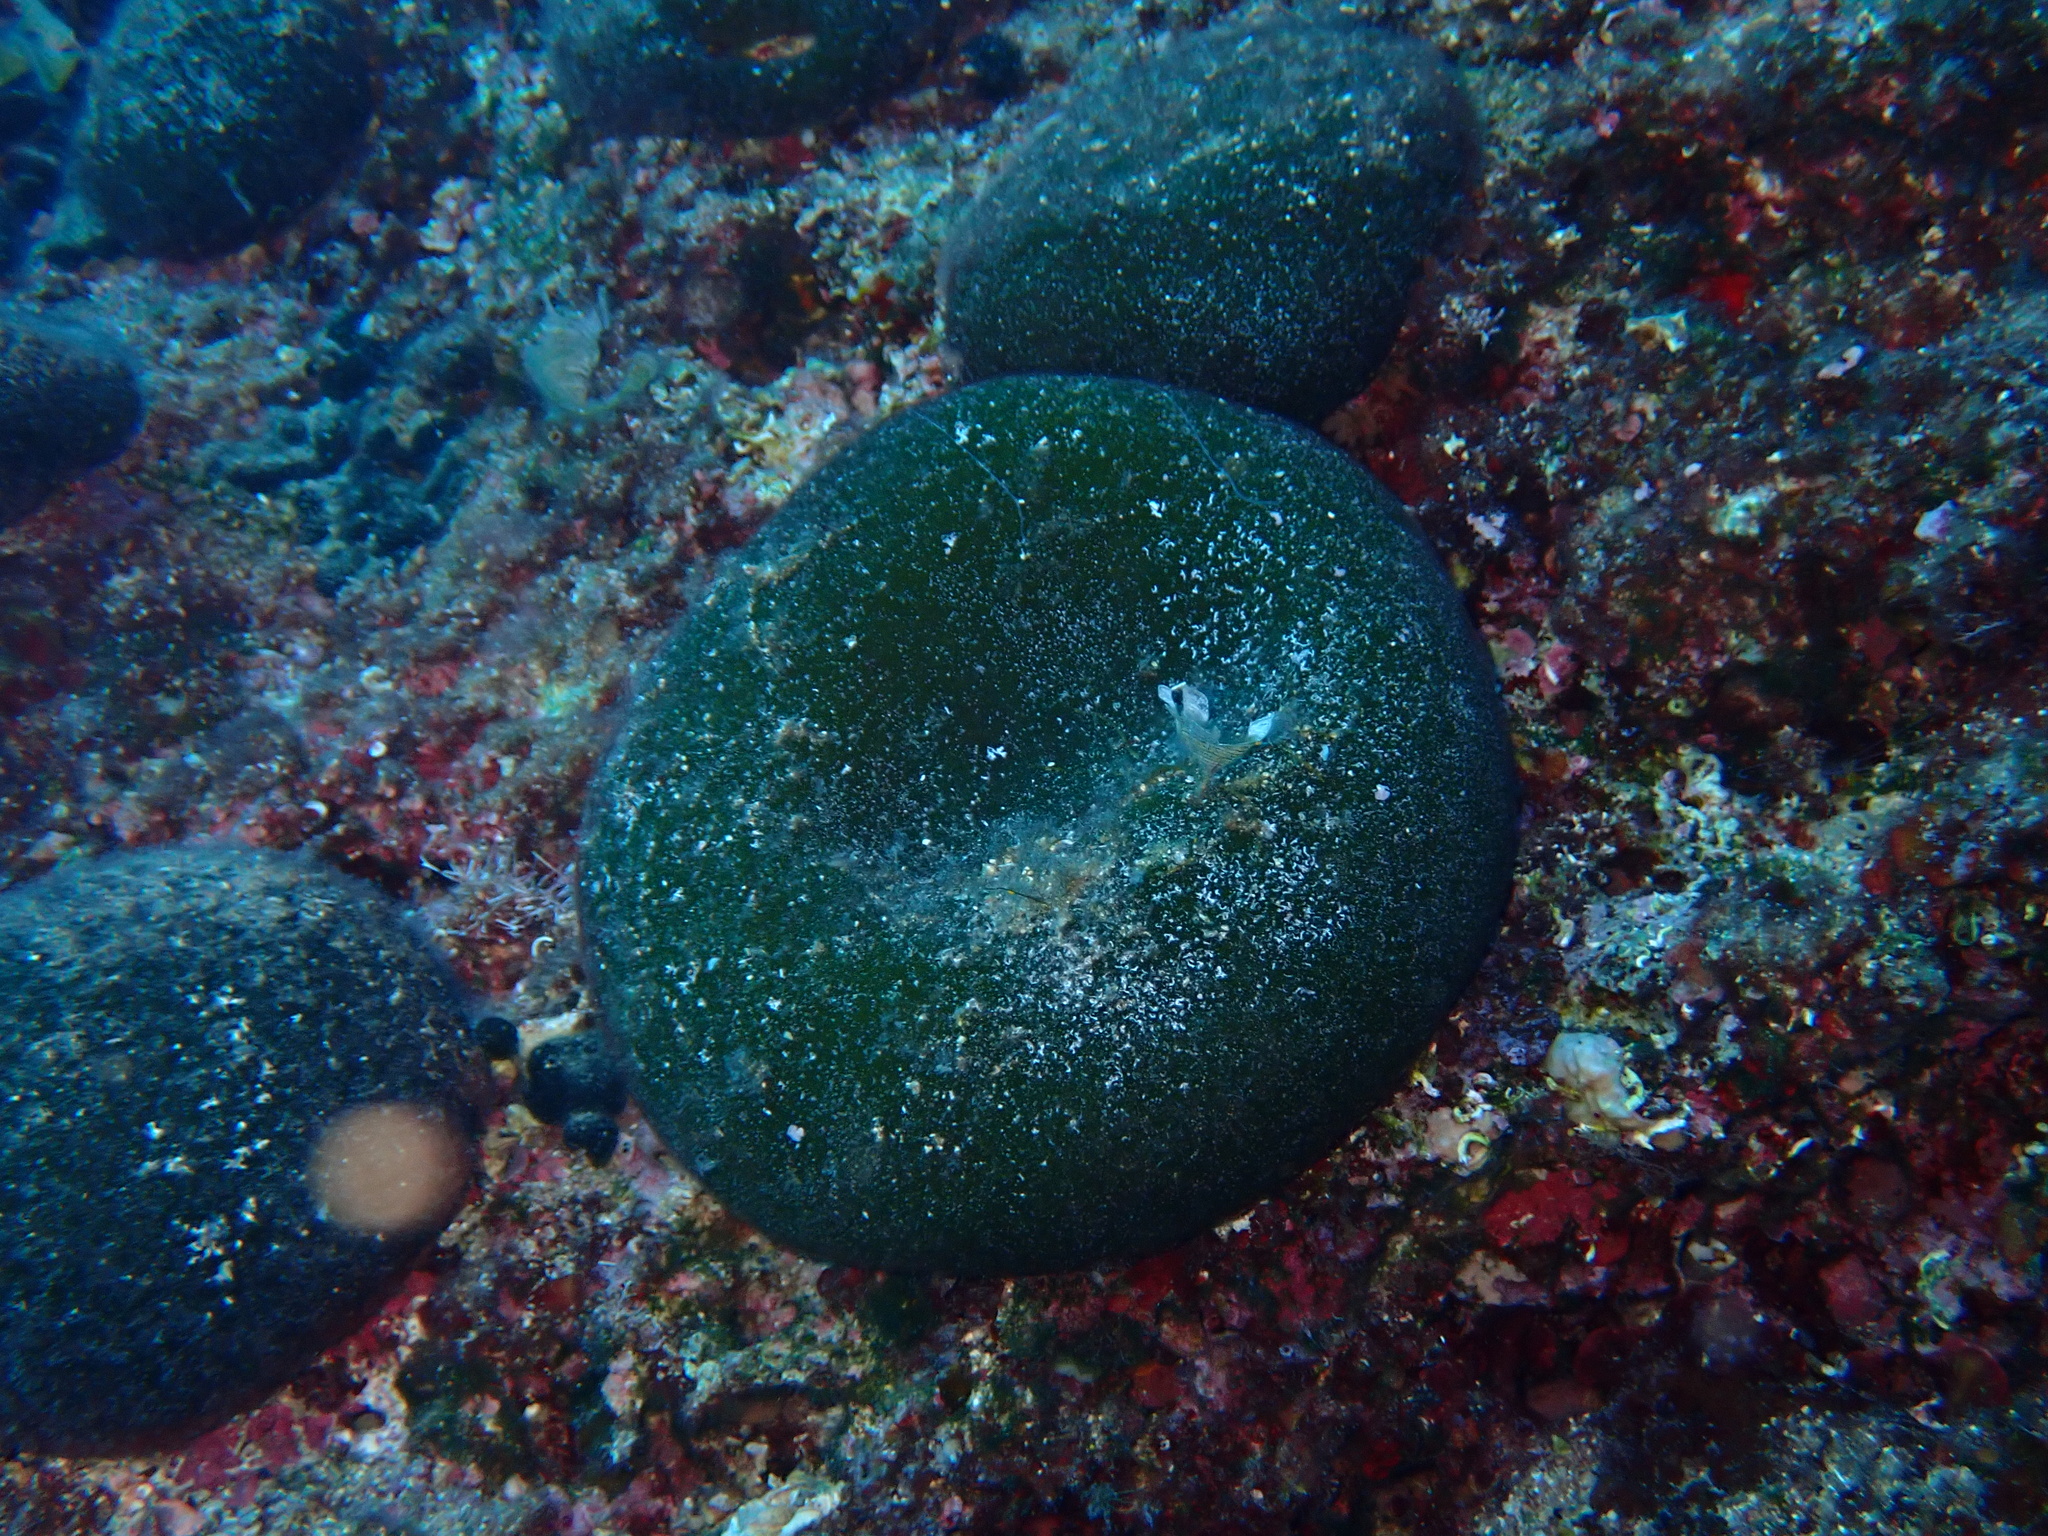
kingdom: Plantae
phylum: Chlorophyta
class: Ulvophyceae
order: Bryopsidales
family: Codiaceae
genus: Codium
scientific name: Codium bursa
